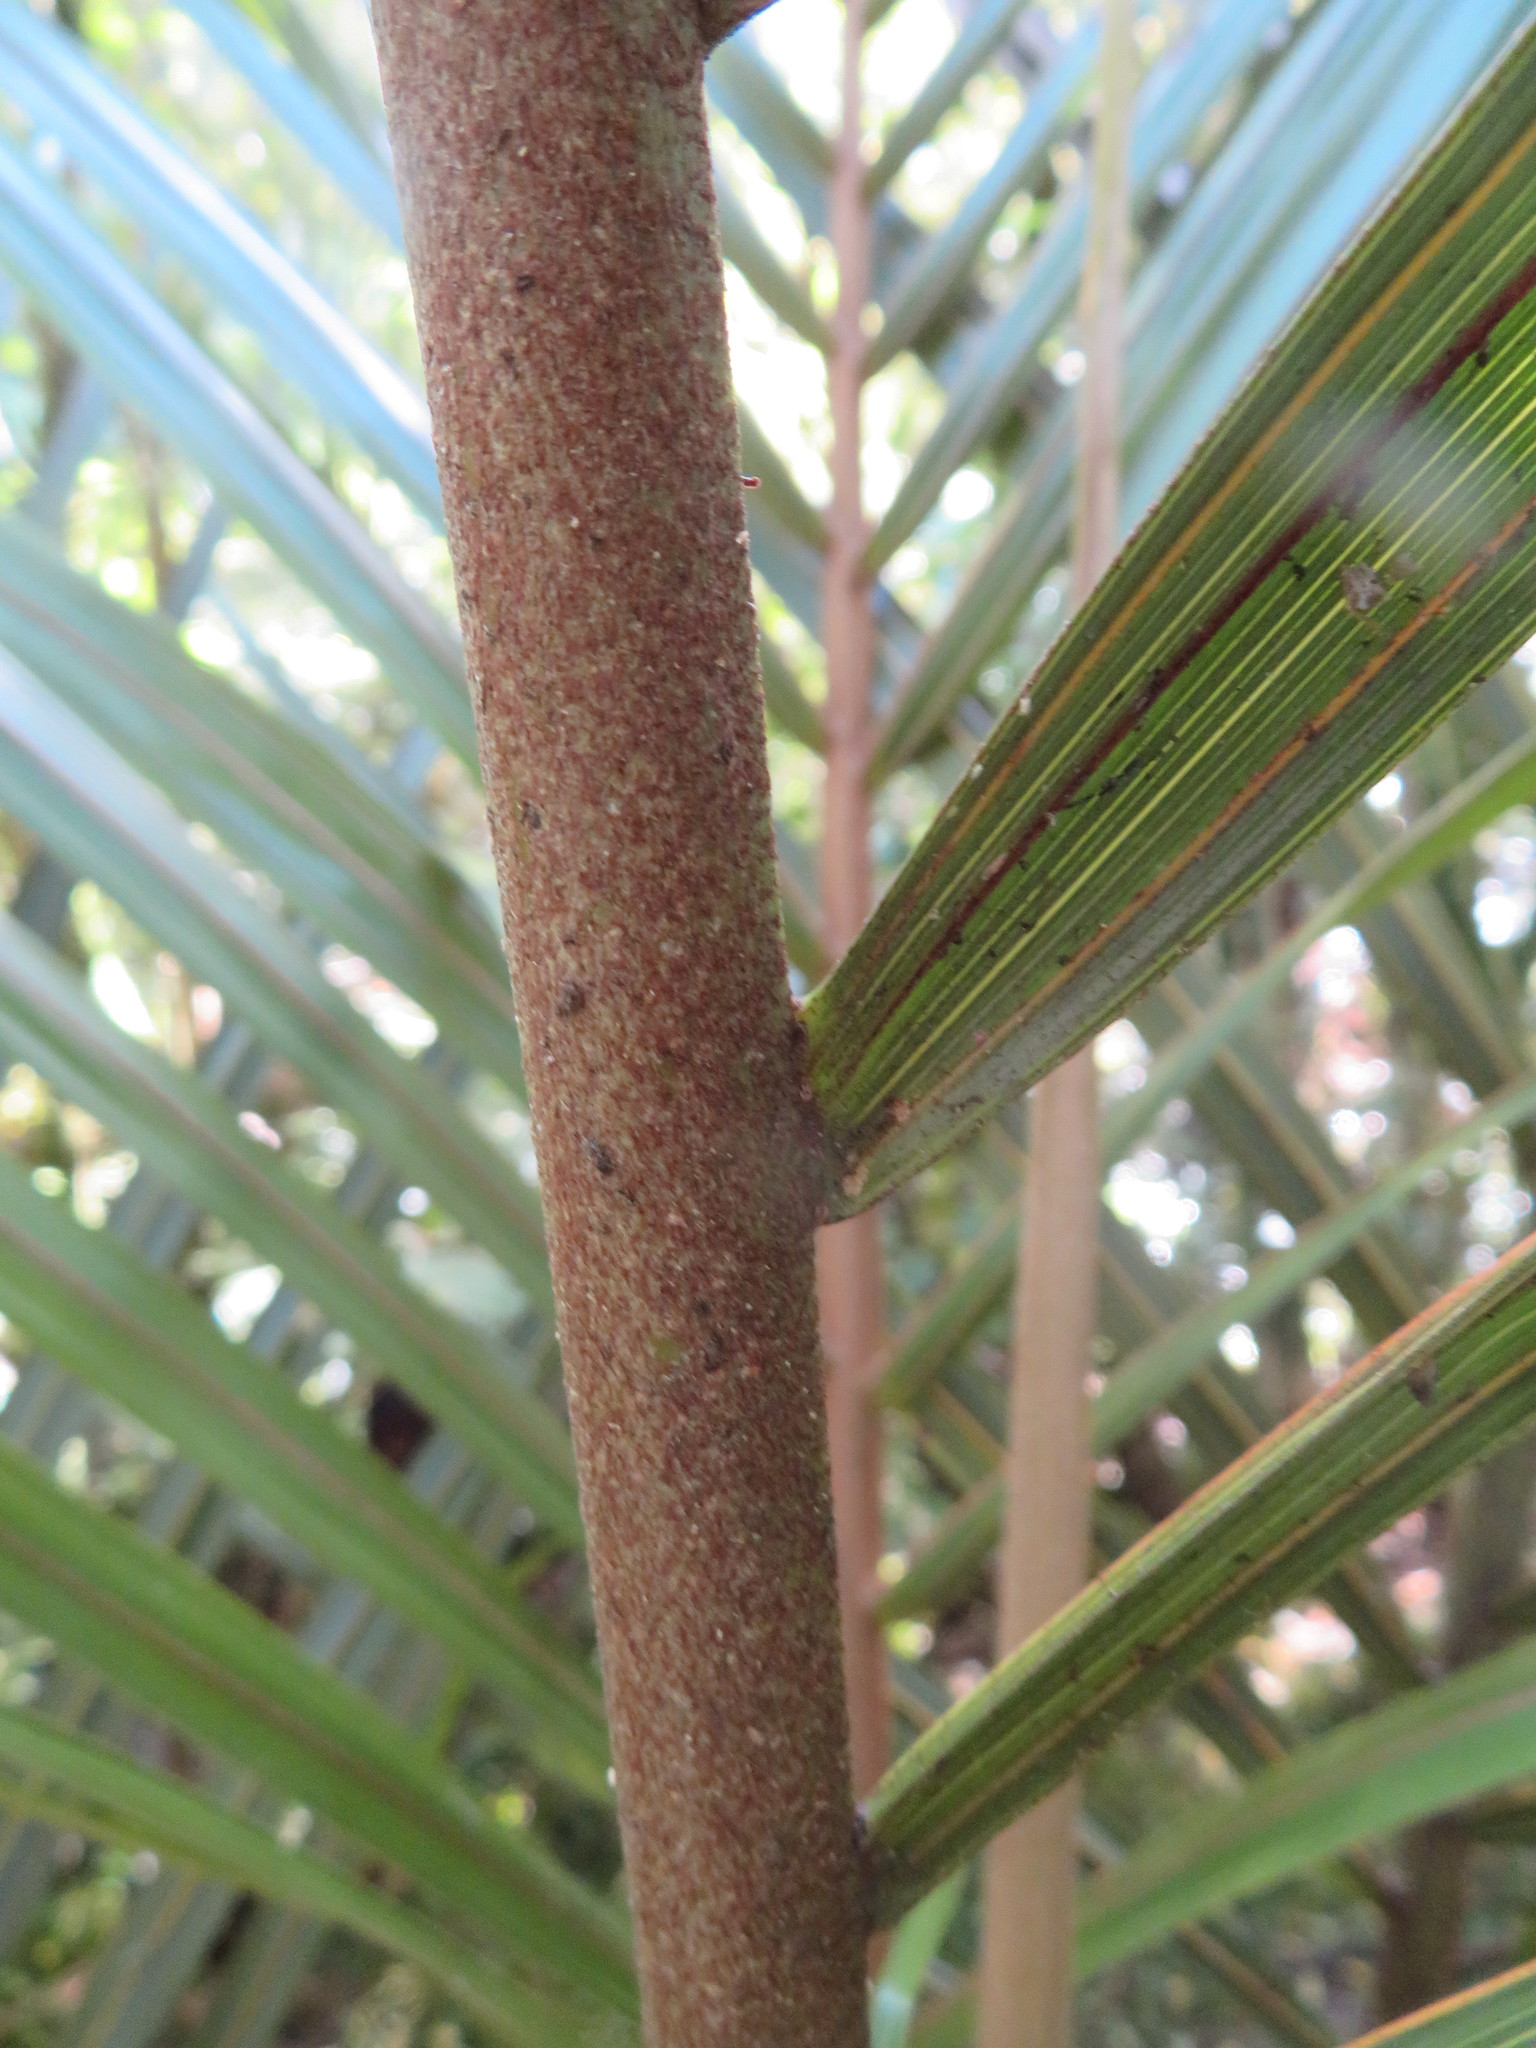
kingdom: Plantae
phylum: Tracheophyta
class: Liliopsida
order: Arecales
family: Arecaceae
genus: Rhopalostylis
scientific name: Rhopalostylis sapida
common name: Feather-duster palm
